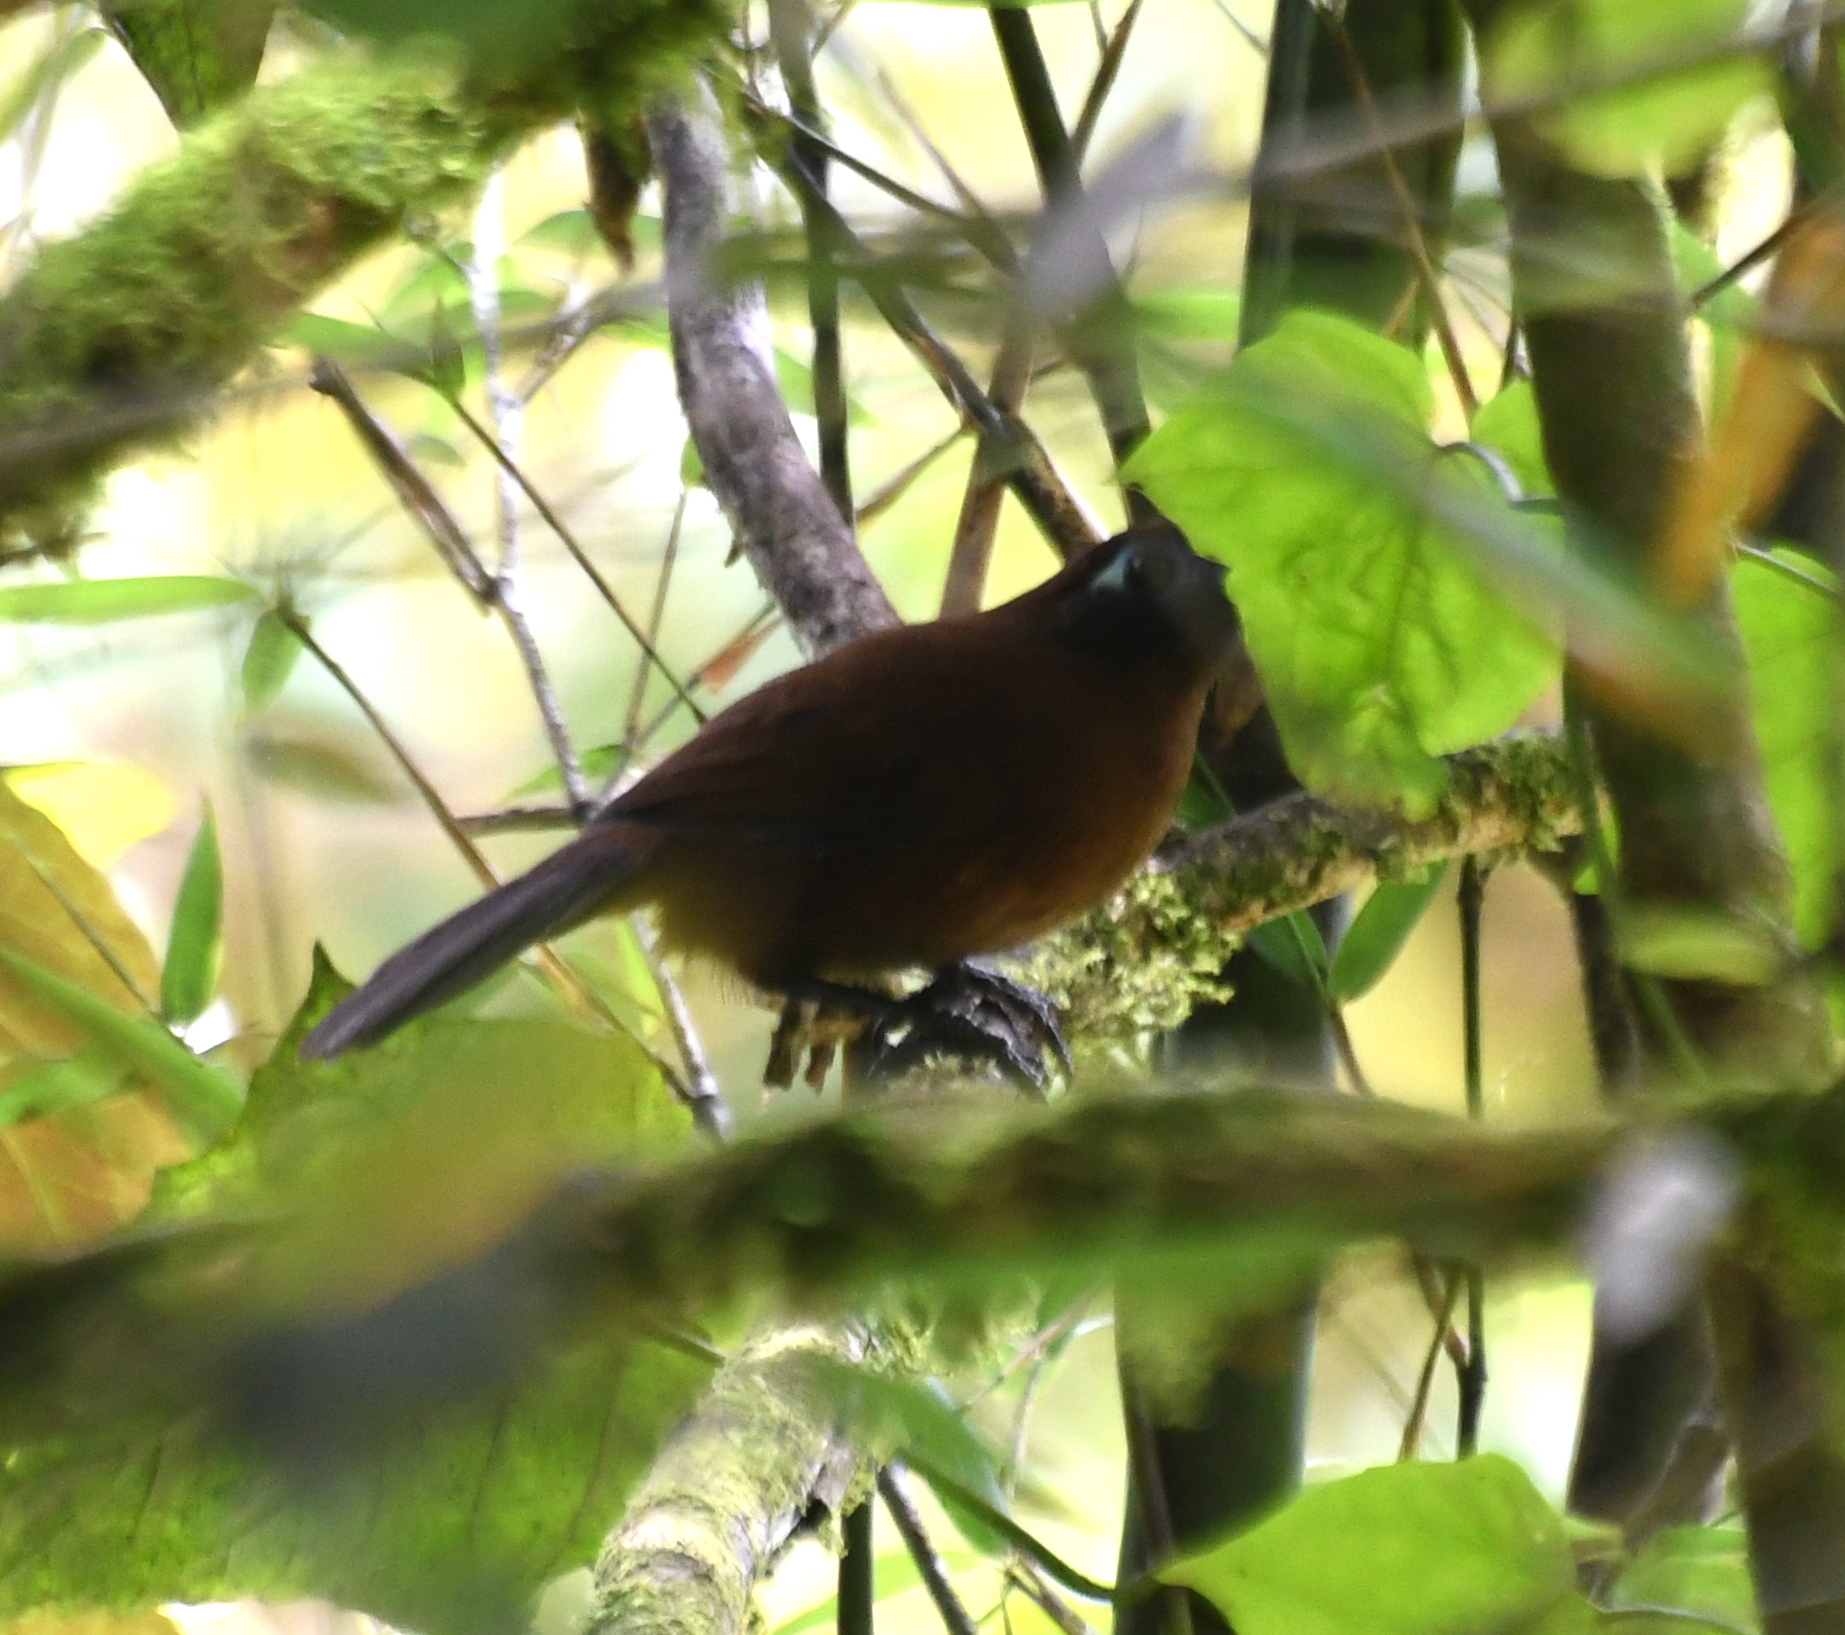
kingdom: Animalia
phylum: Chordata
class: Aves
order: Passeriformes
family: Thamnophilidae
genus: Hafferia
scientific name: Hafferia zeledoni
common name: Zeledon's antbird
